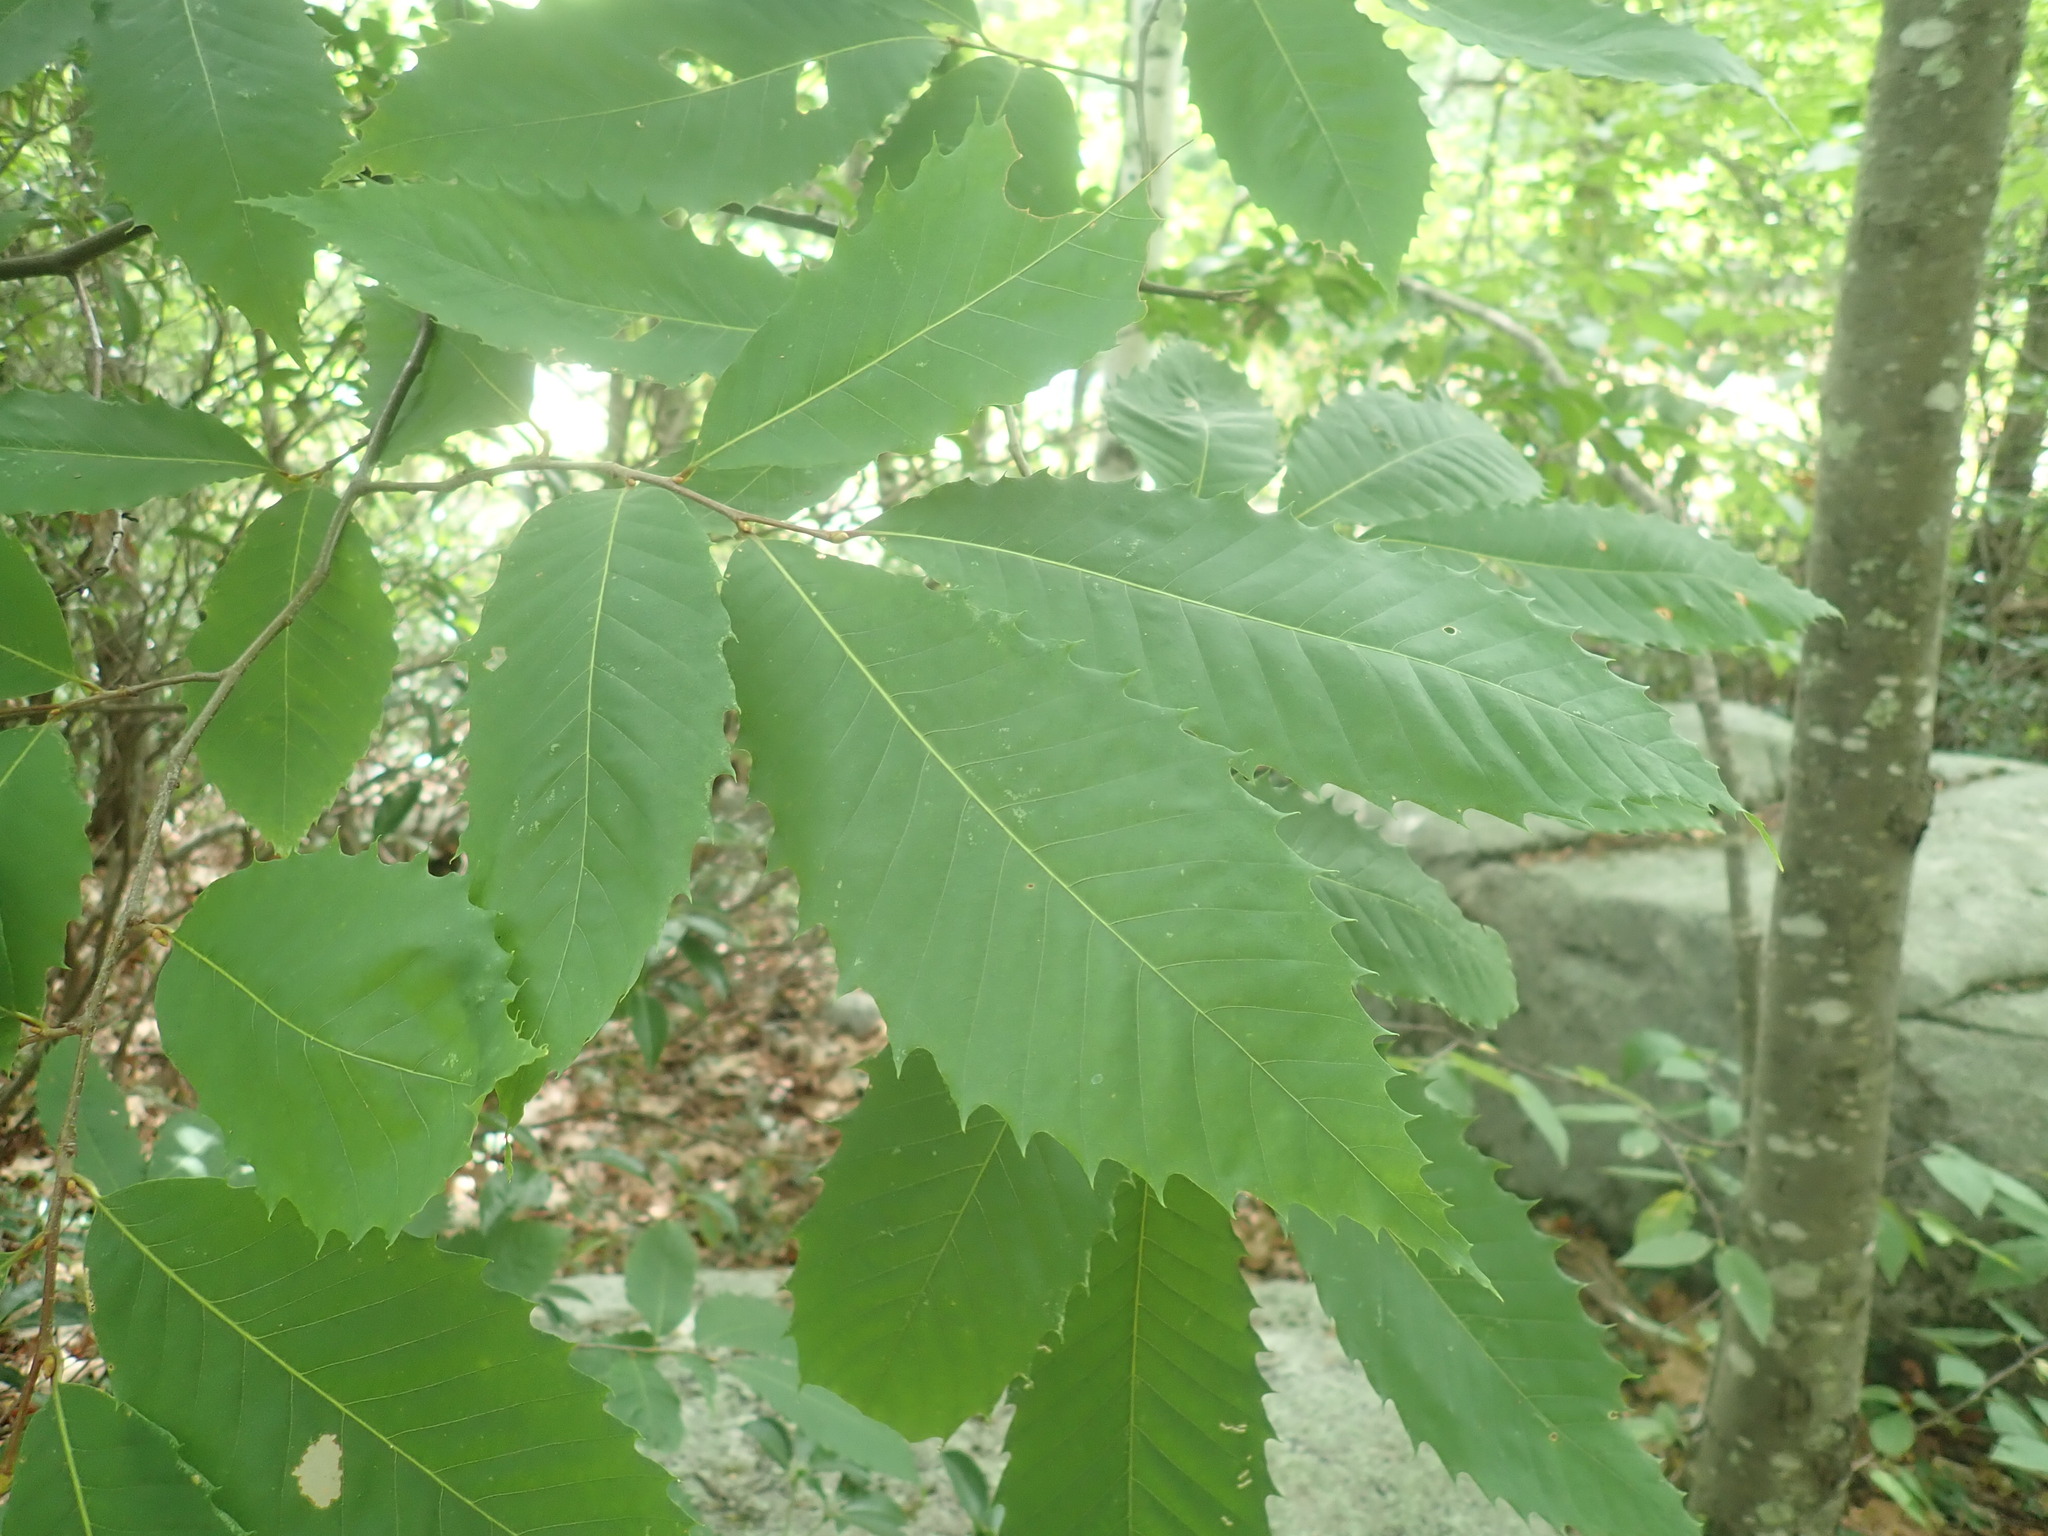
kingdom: Plantae
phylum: Tracheophyta
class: Magnoliopsida
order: Fagales
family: Fagaceae
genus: Castanea
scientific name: Castanea dentata
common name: American chestnut
